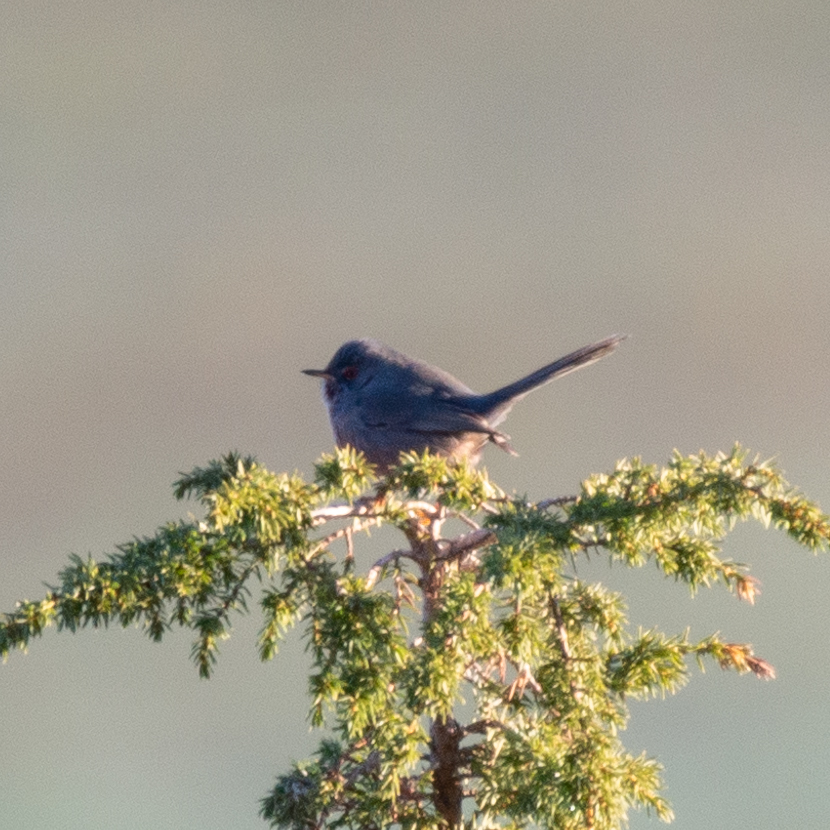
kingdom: Animalia
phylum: Chordata
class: Aves
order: Passeriformes
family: Sylviidae
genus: Sylvia
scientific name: Sylvia undata
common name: Dartford warbler
